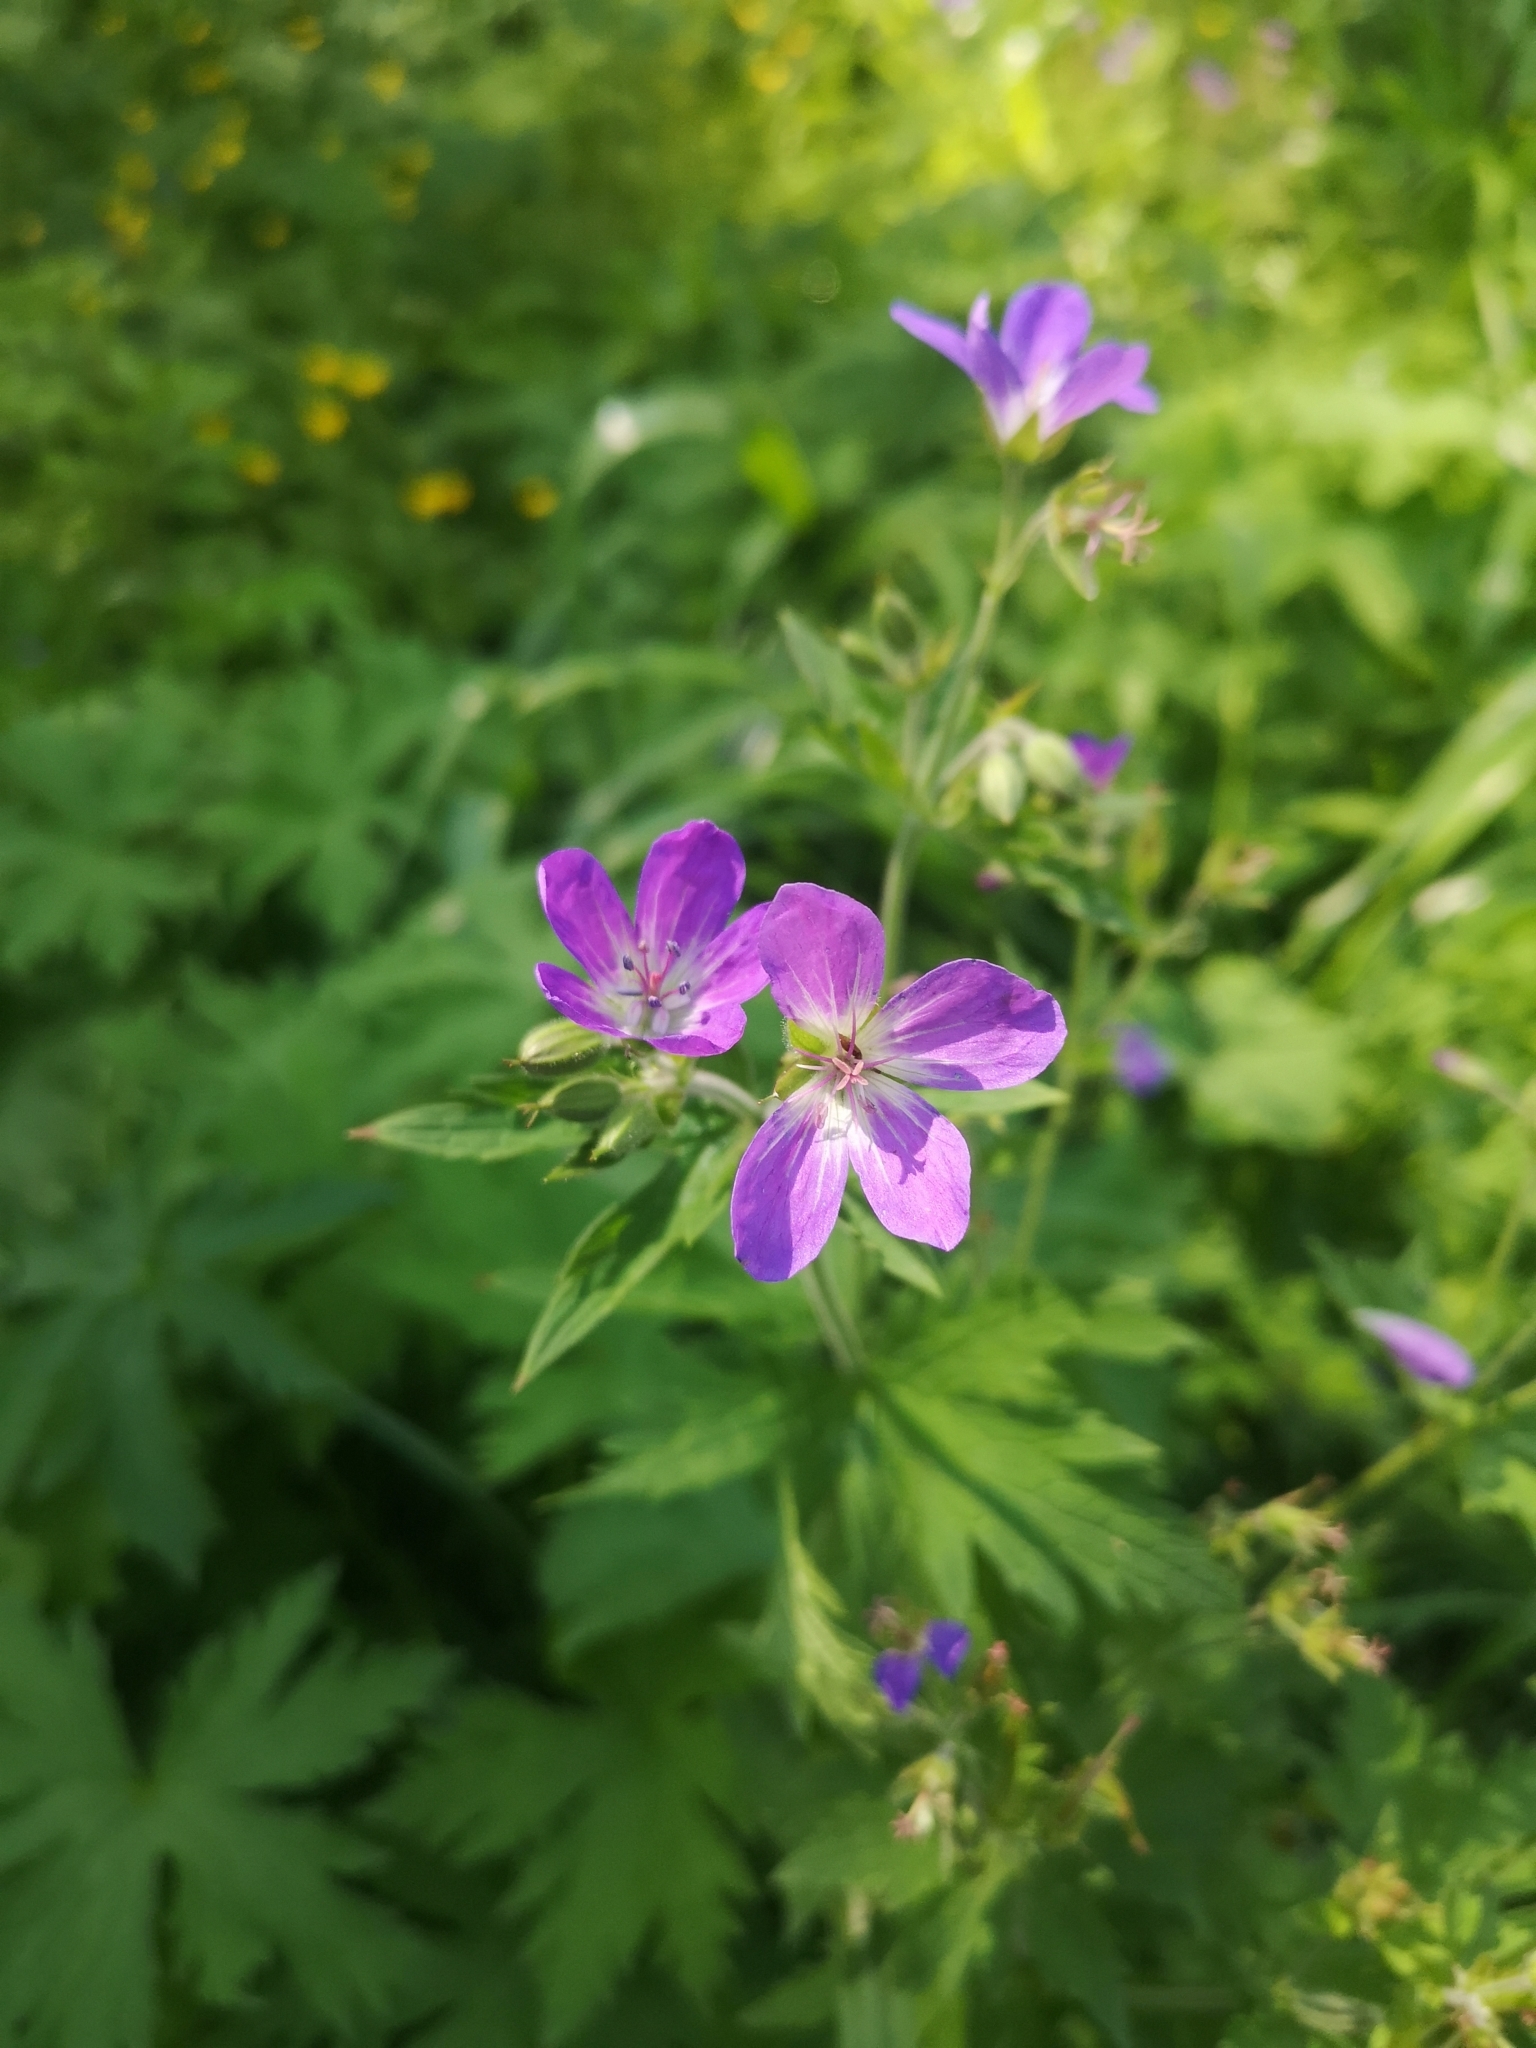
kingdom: Plantae
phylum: Tracheophyta
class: Magnoliopsida
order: Geraniales
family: Geraniaceae
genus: Geranium
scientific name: Geranium sylvaticum
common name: Wood crane's-bill
